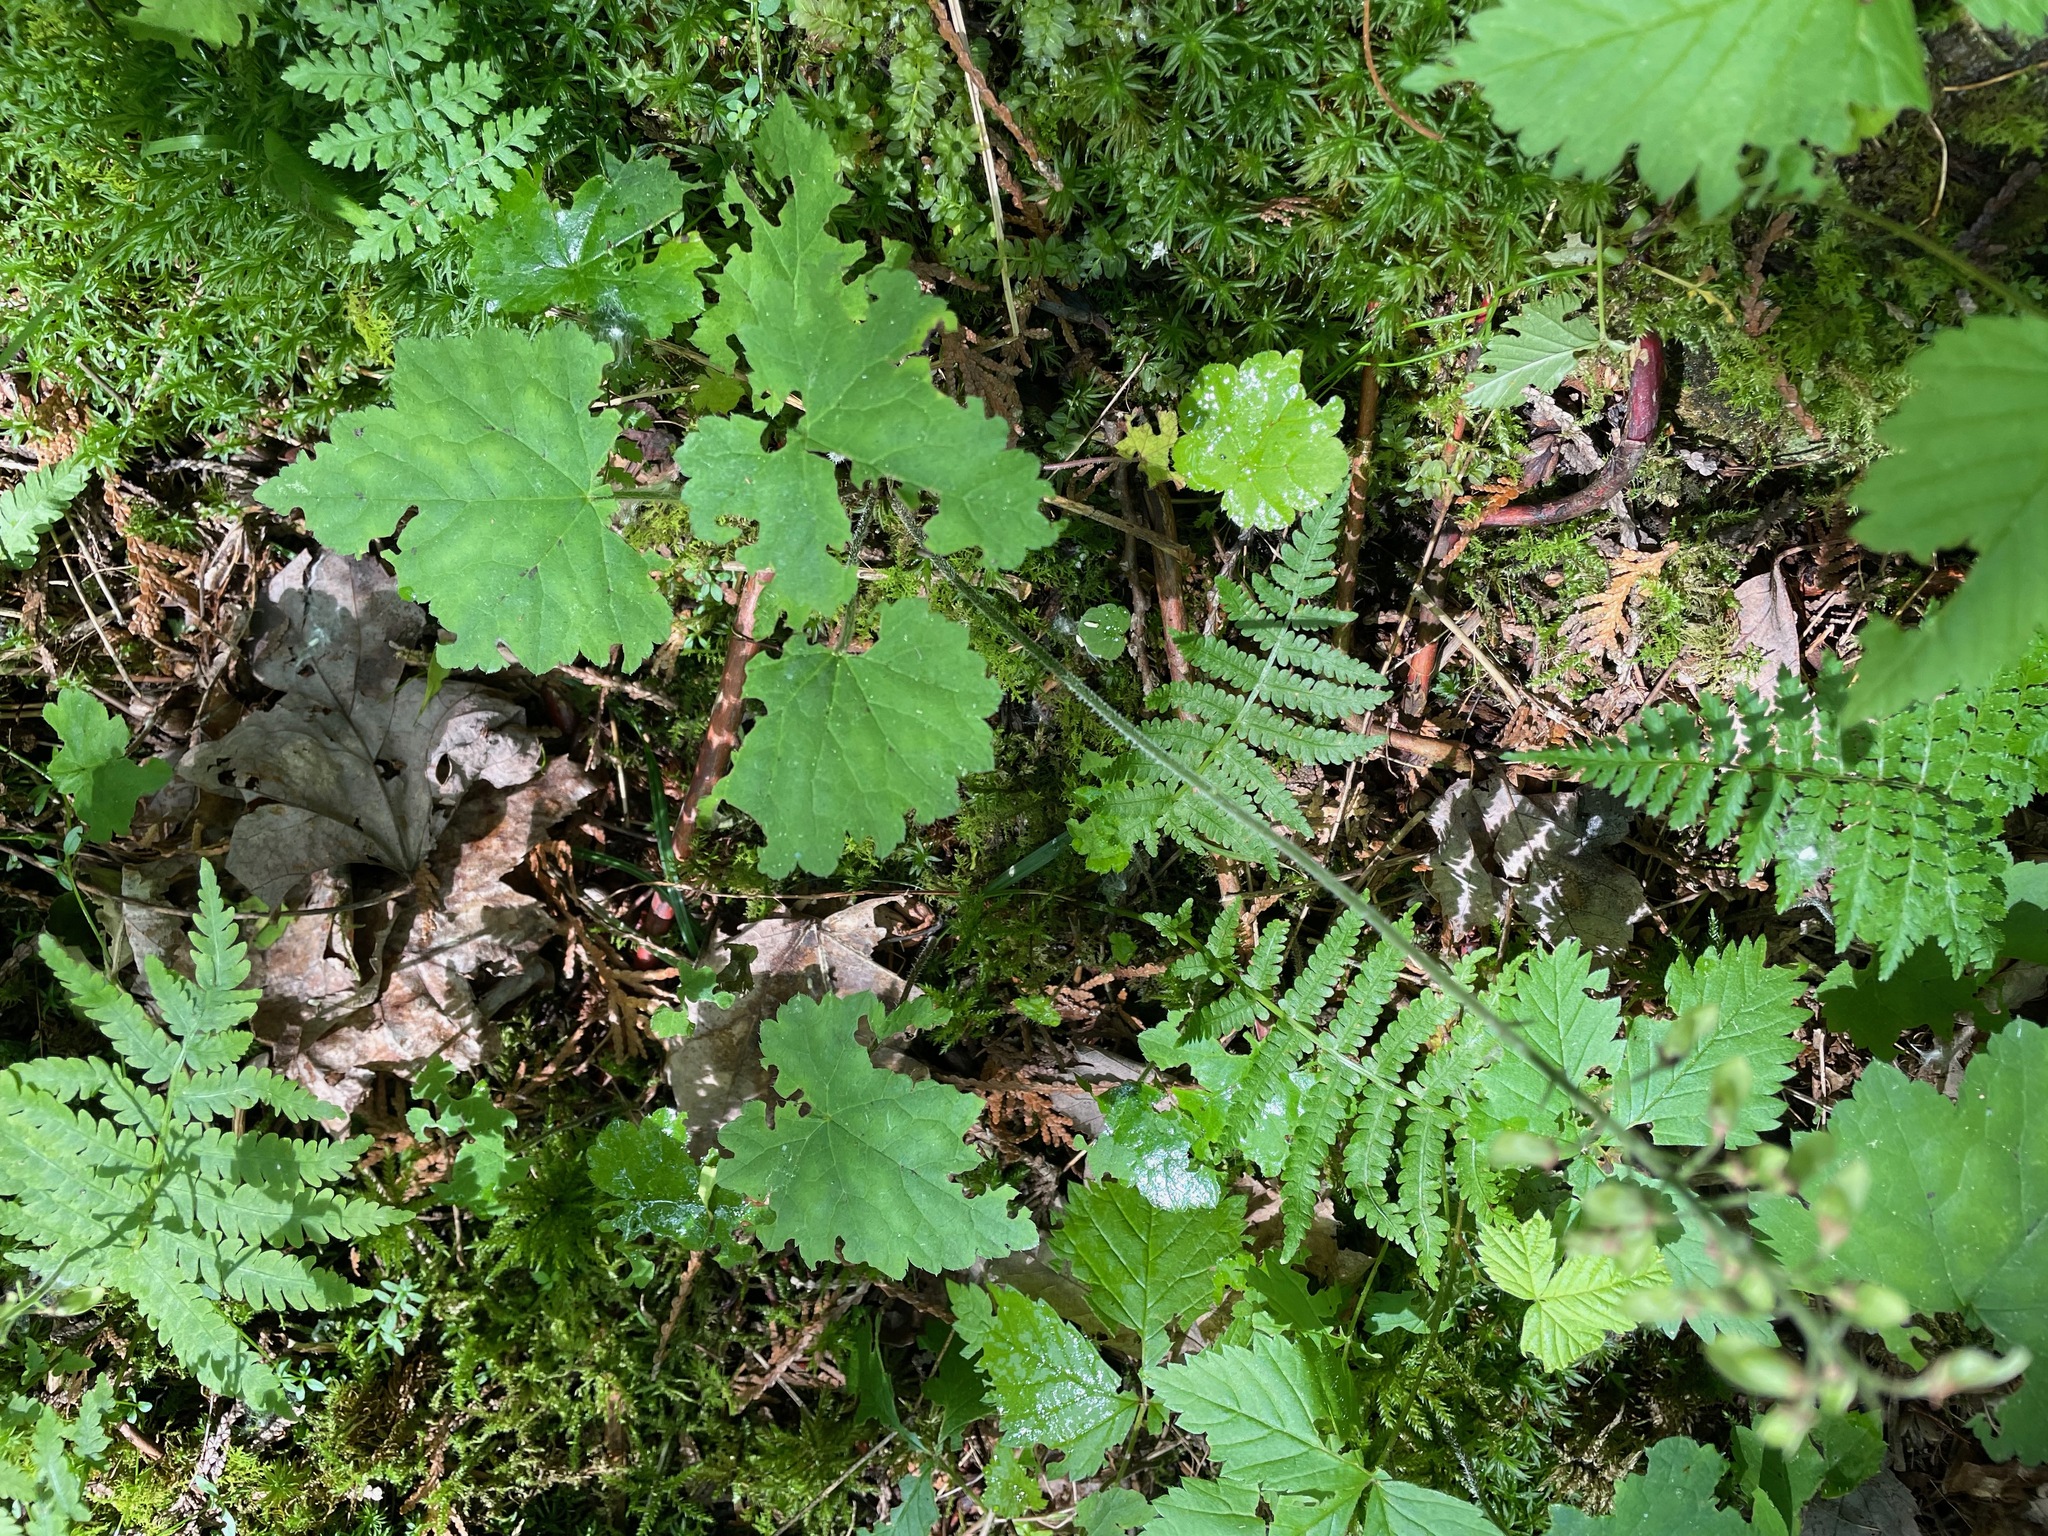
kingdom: Plantae
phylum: Tracheophyta
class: Magnoliopsida
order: Saxifragales
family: Saxifragaceae
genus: Tiarella
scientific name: Tiarella stolonifera
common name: Stoloniferous foamflower
